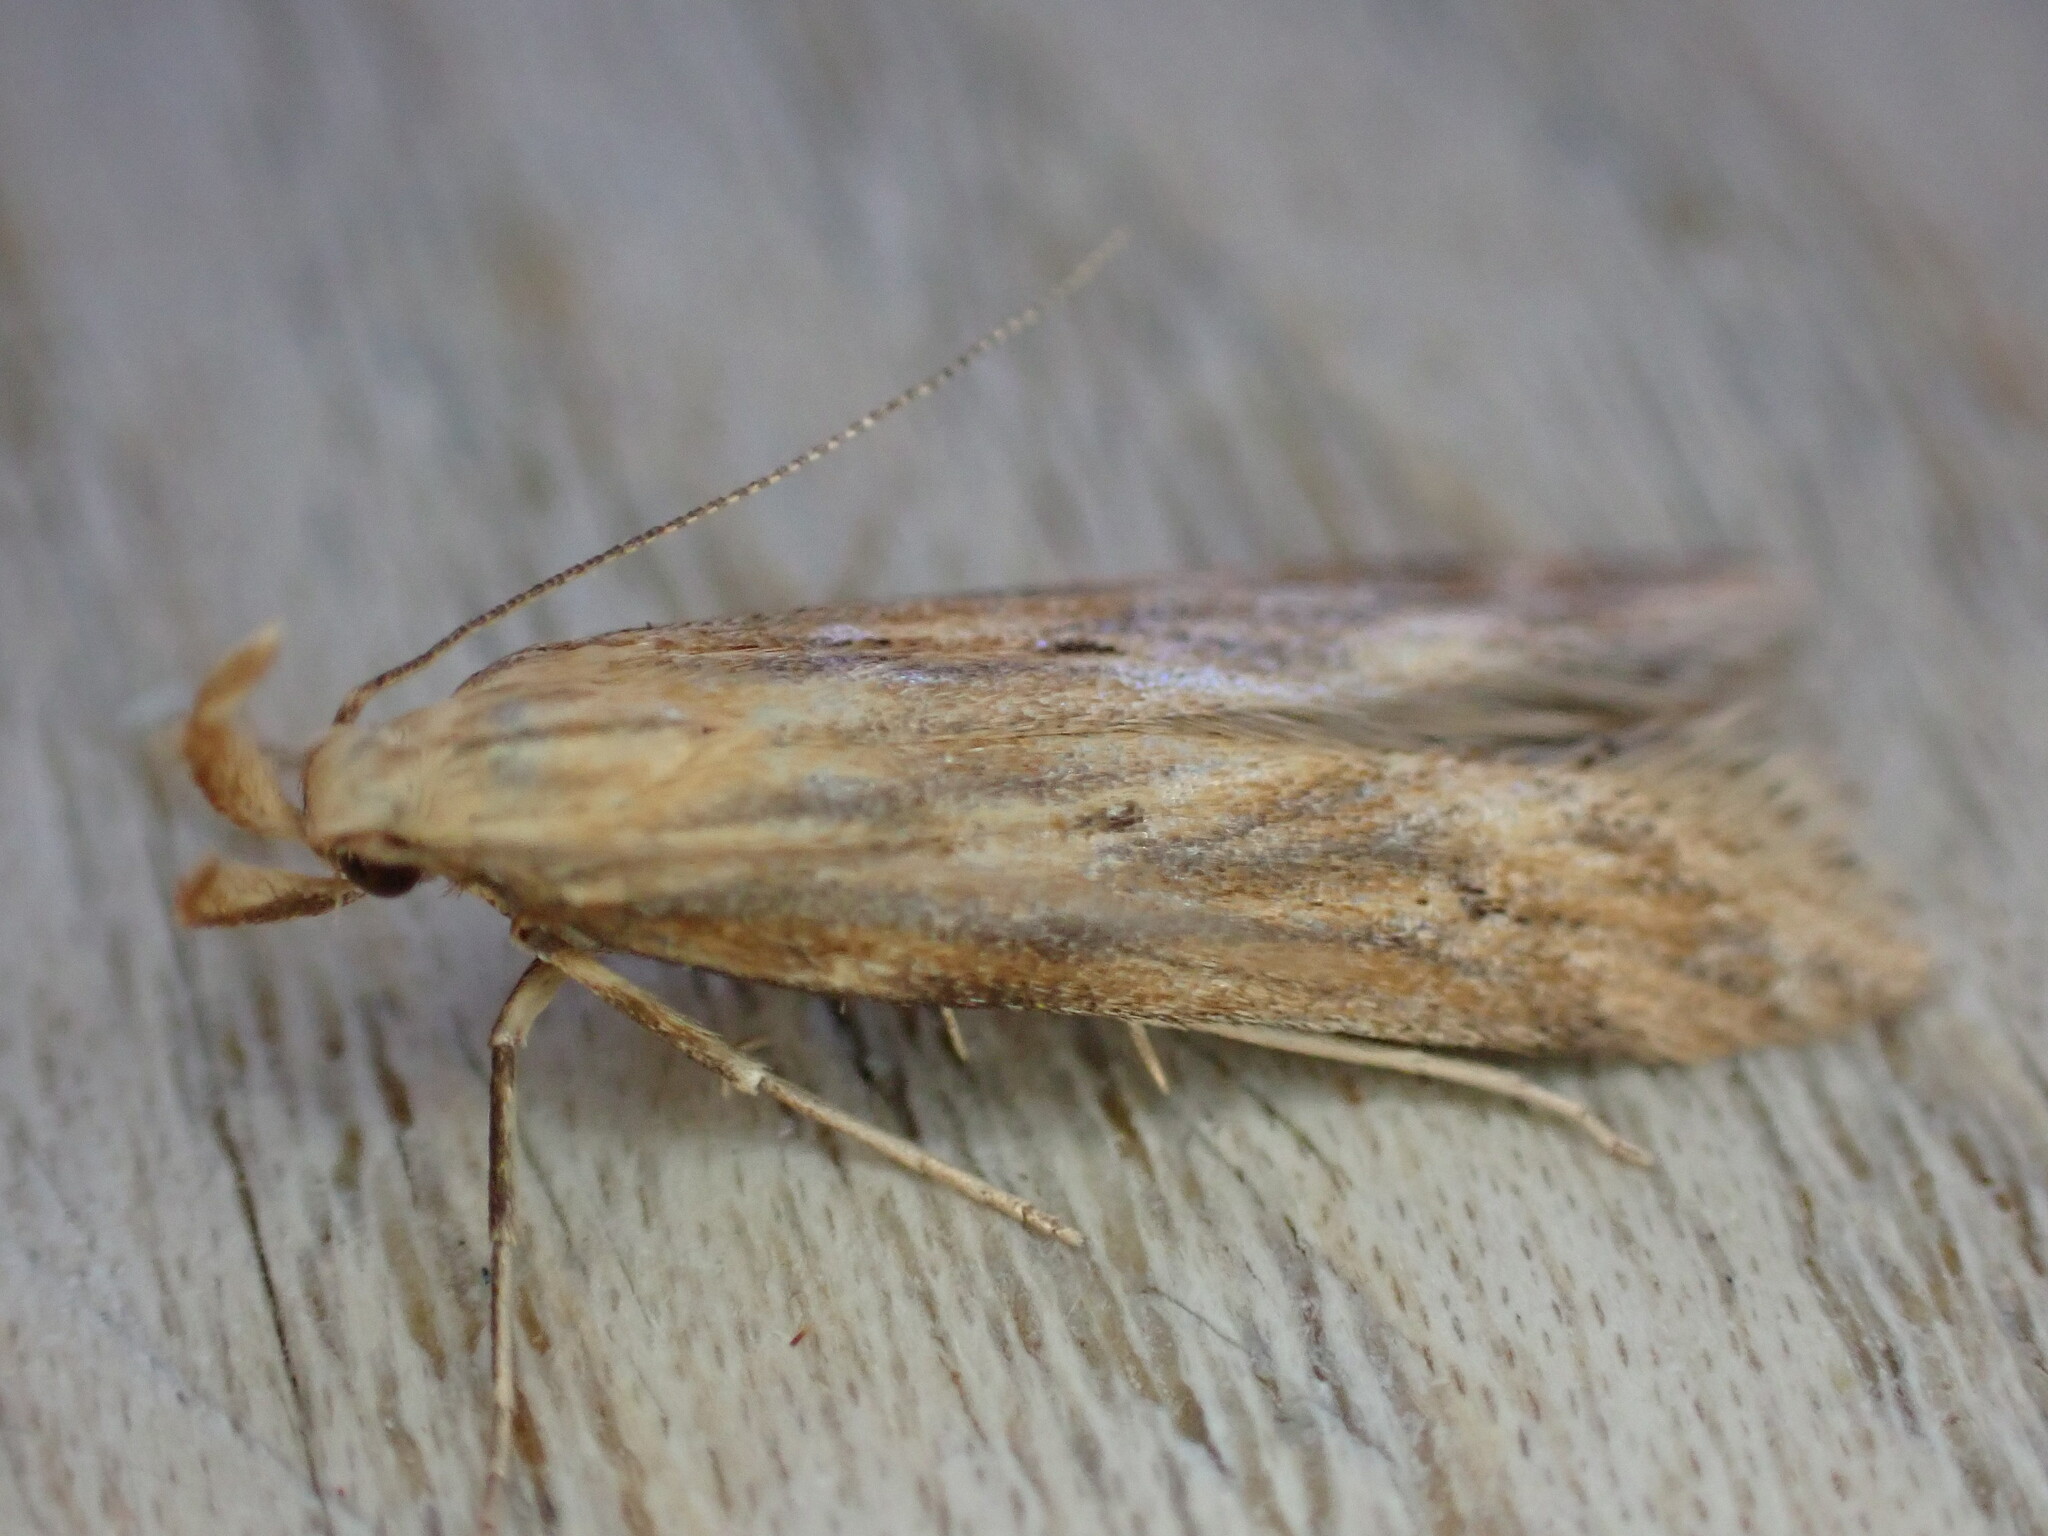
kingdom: Animalia
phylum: Arthropoda
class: Insecta
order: Lepidoptera
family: Gelechiidae
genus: Metzneria
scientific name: Metzneria lappella
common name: Burdock neb
